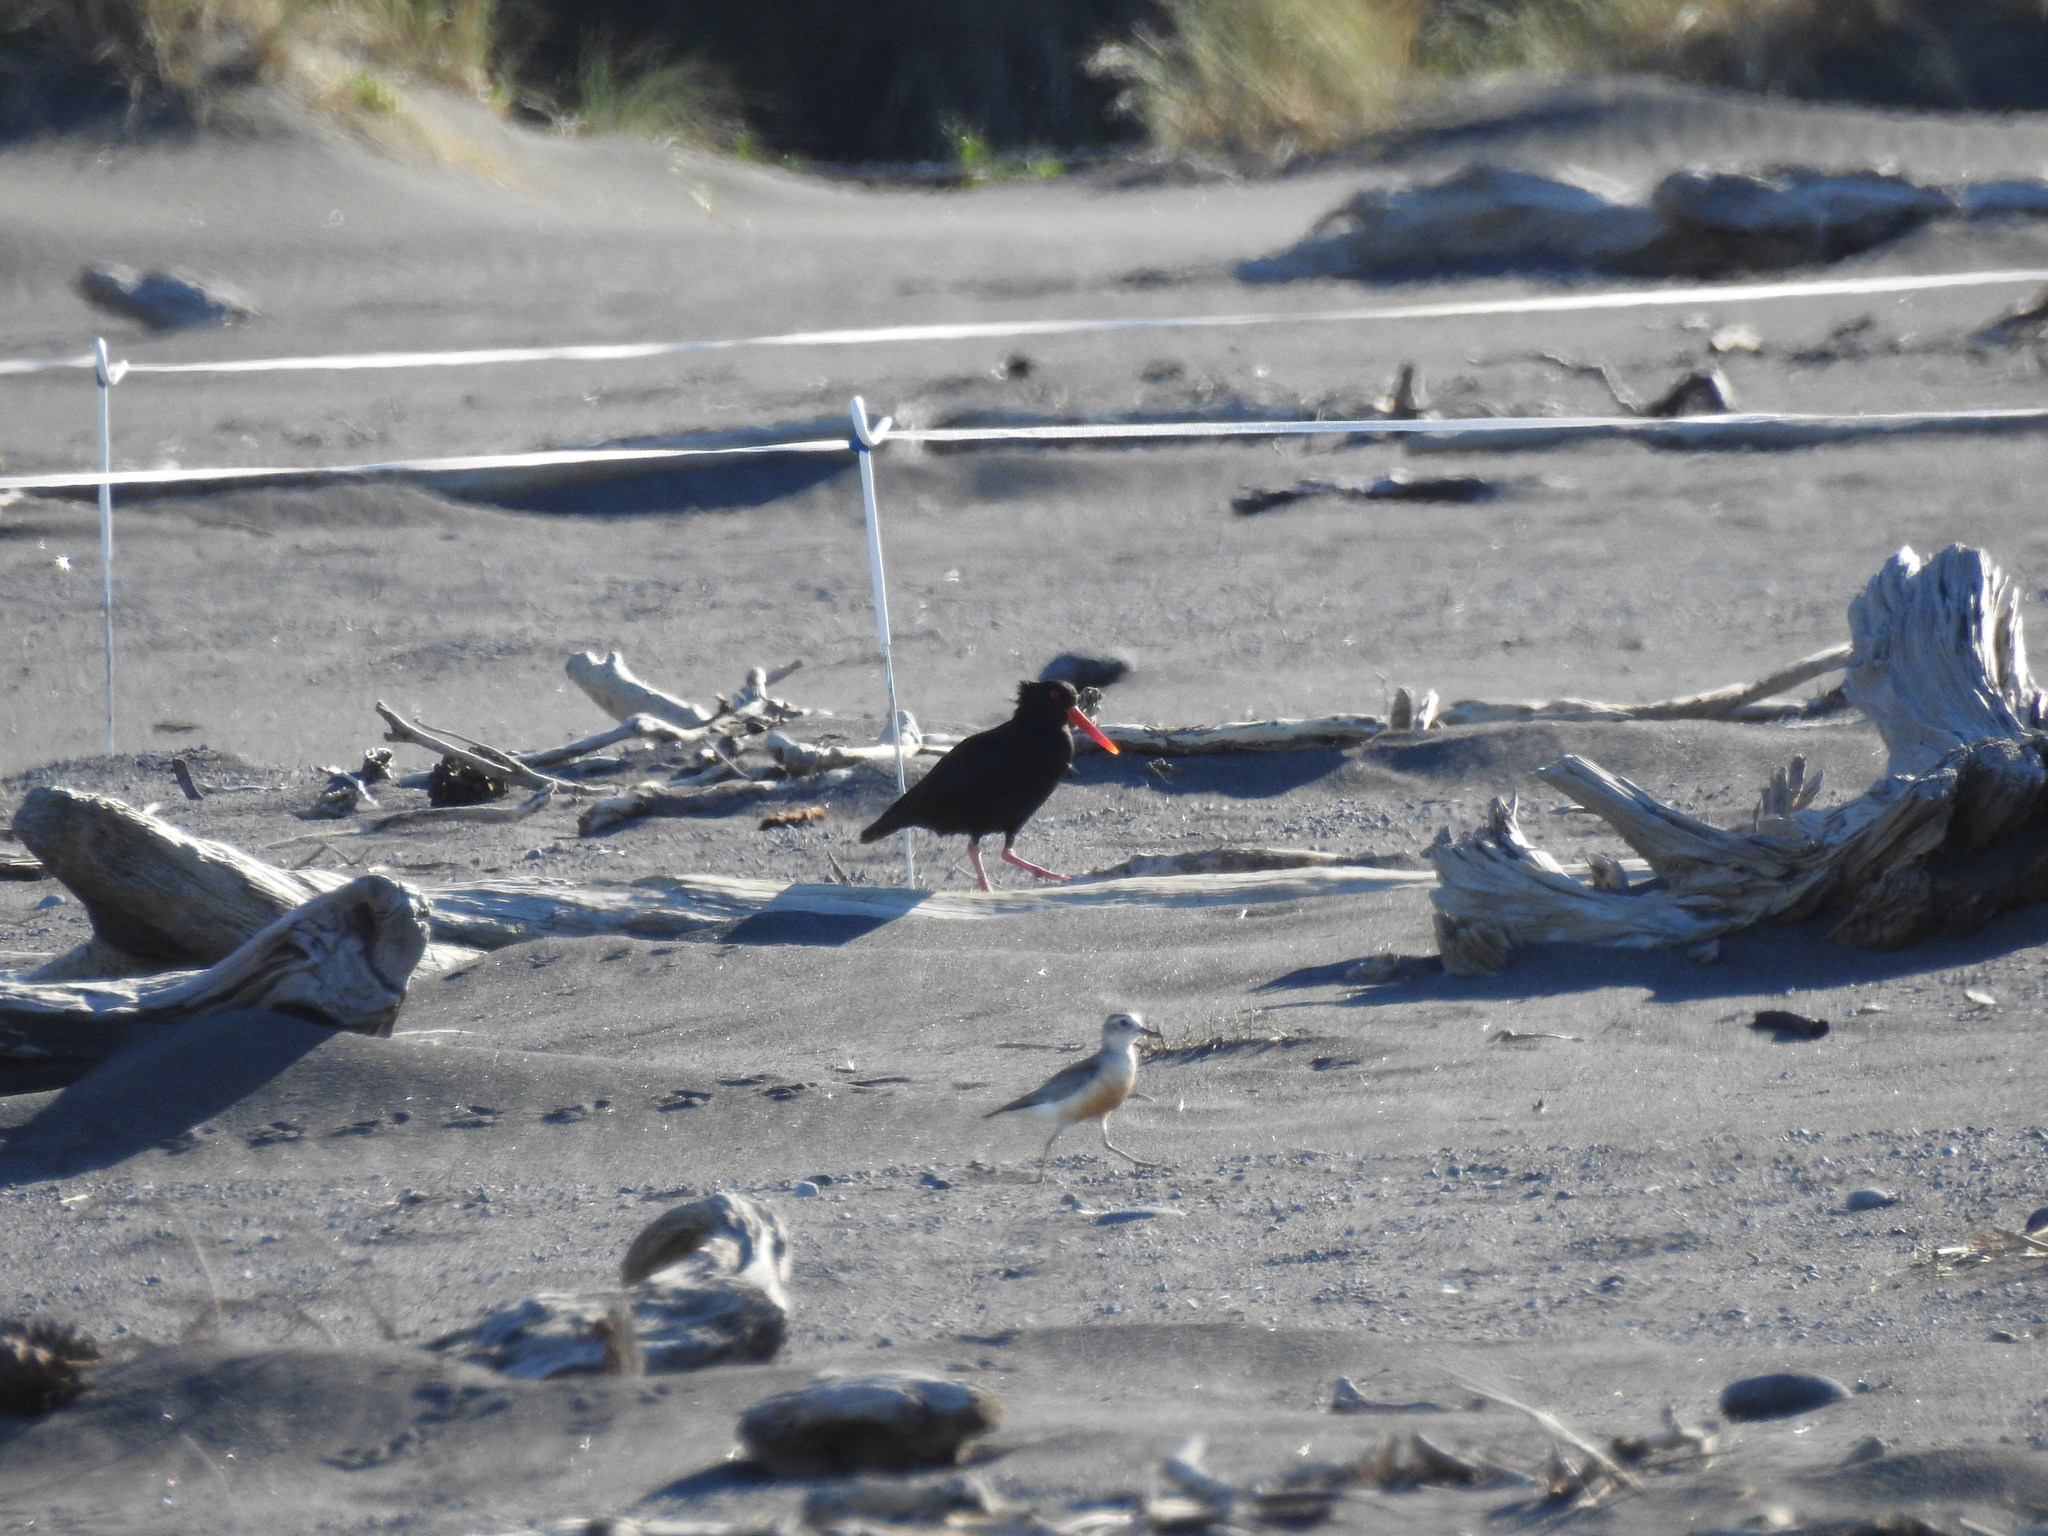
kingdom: Animalia
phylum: Chordata
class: Aves
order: Charadriiformes
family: Charadriidae
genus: Anarhynchus
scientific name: Anarhynchus
